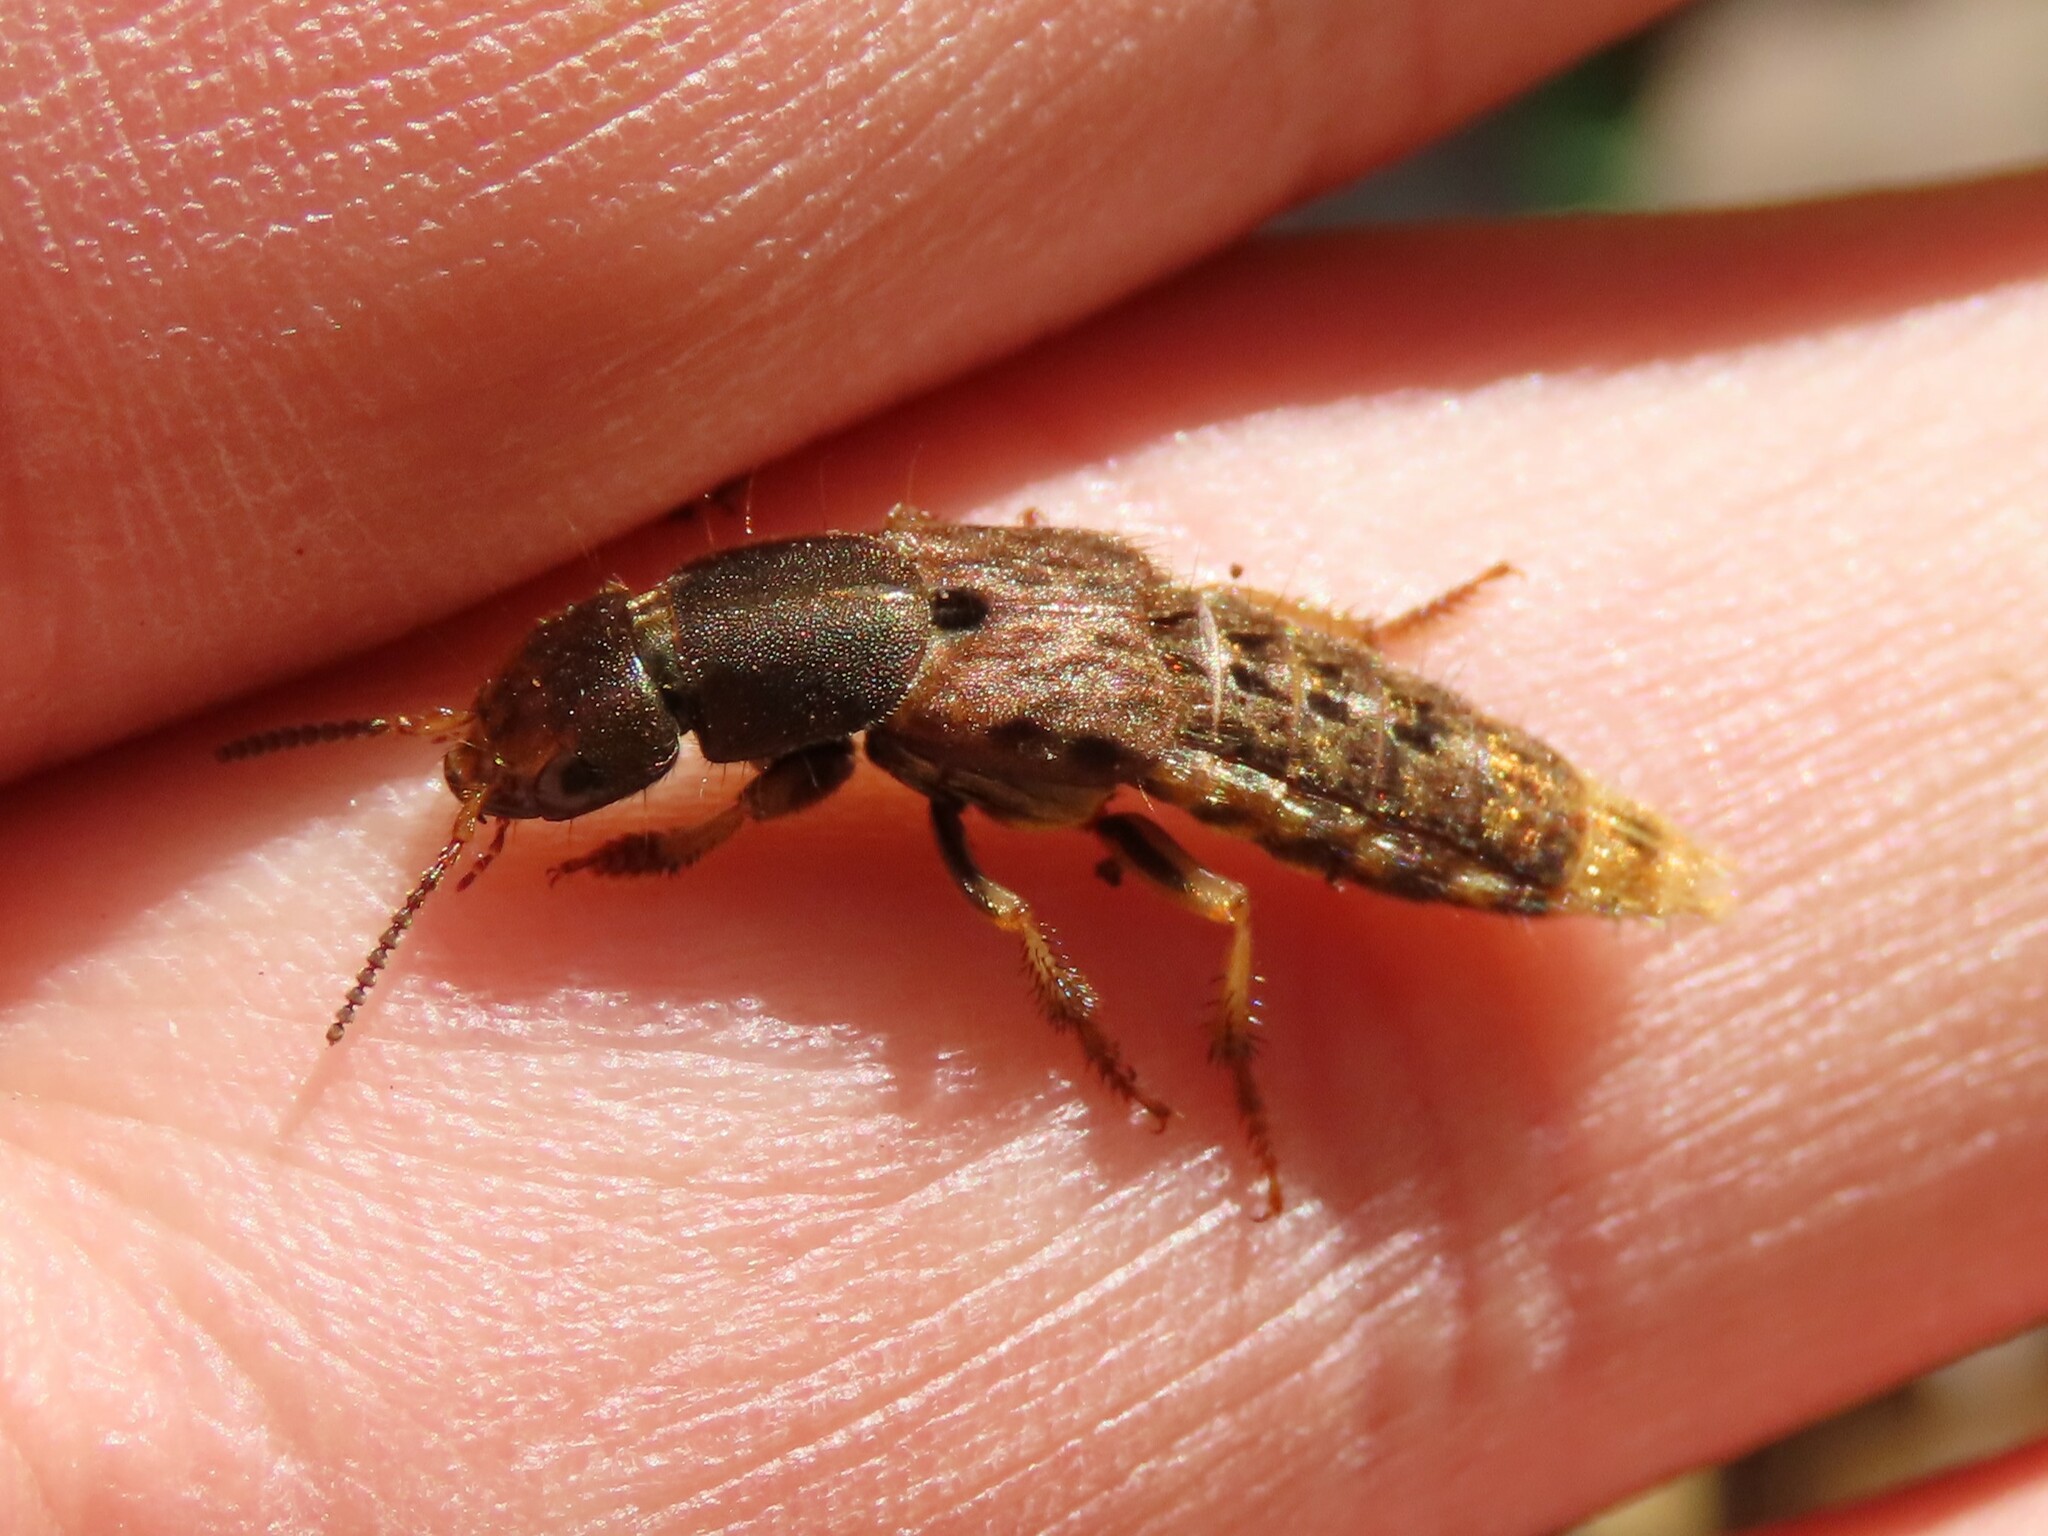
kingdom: Animalia
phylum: Arthropoda
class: Insecta
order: Coleoptera
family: Staphylinidae
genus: Platydracus
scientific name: Platydracus maculosus
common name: Brown rove beetle
